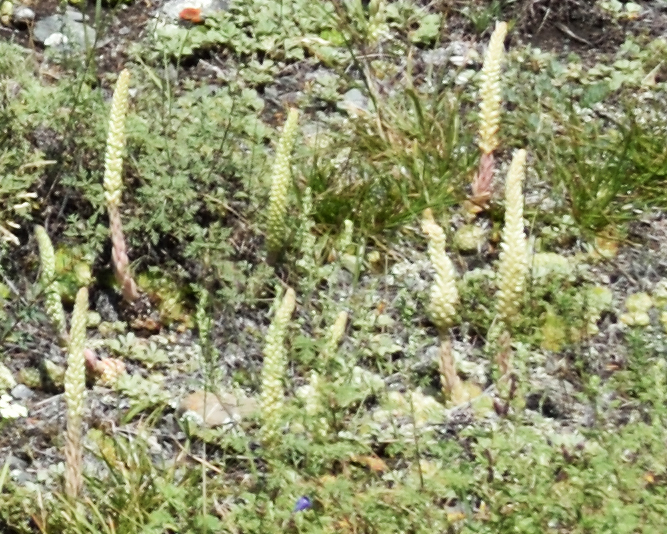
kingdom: Plantae
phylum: Tracheophyta
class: Magnoliopsida
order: Saxifragales
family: Crassulaceae
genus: Orostachys
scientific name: Orostachys spinosa
